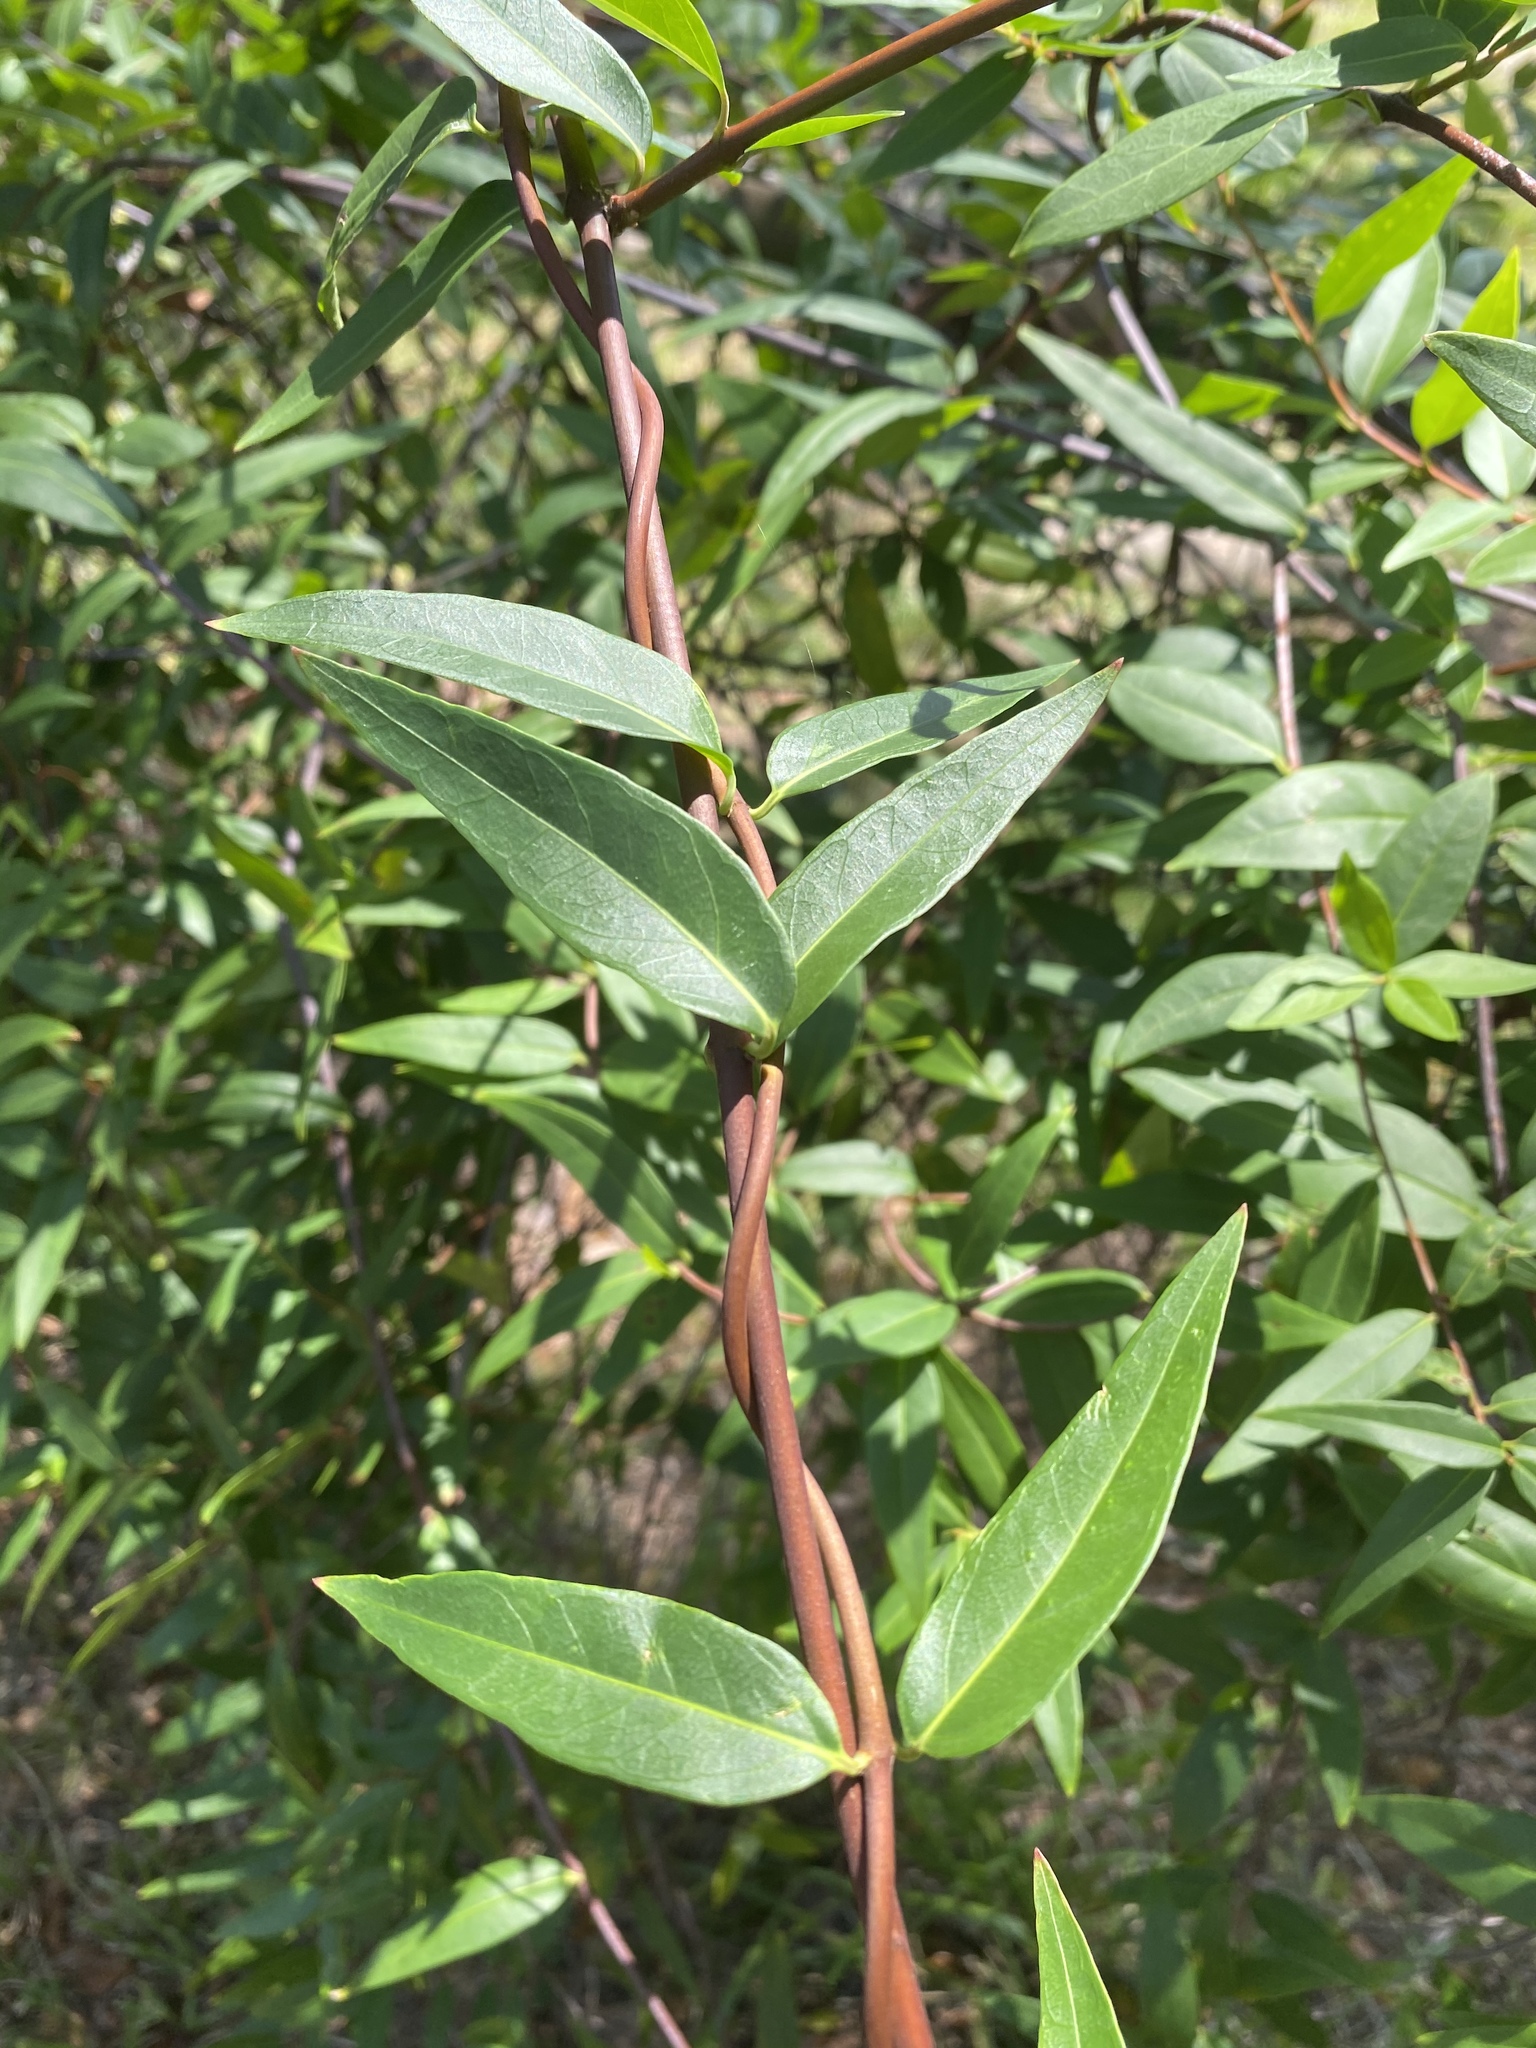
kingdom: Plantae
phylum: Tracheophyta
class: Magnoliopsida
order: Gentianales
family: Gelsemiaceae
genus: Gelsemium
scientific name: Gelsemium sempervirens
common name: Carolina-jasmine
